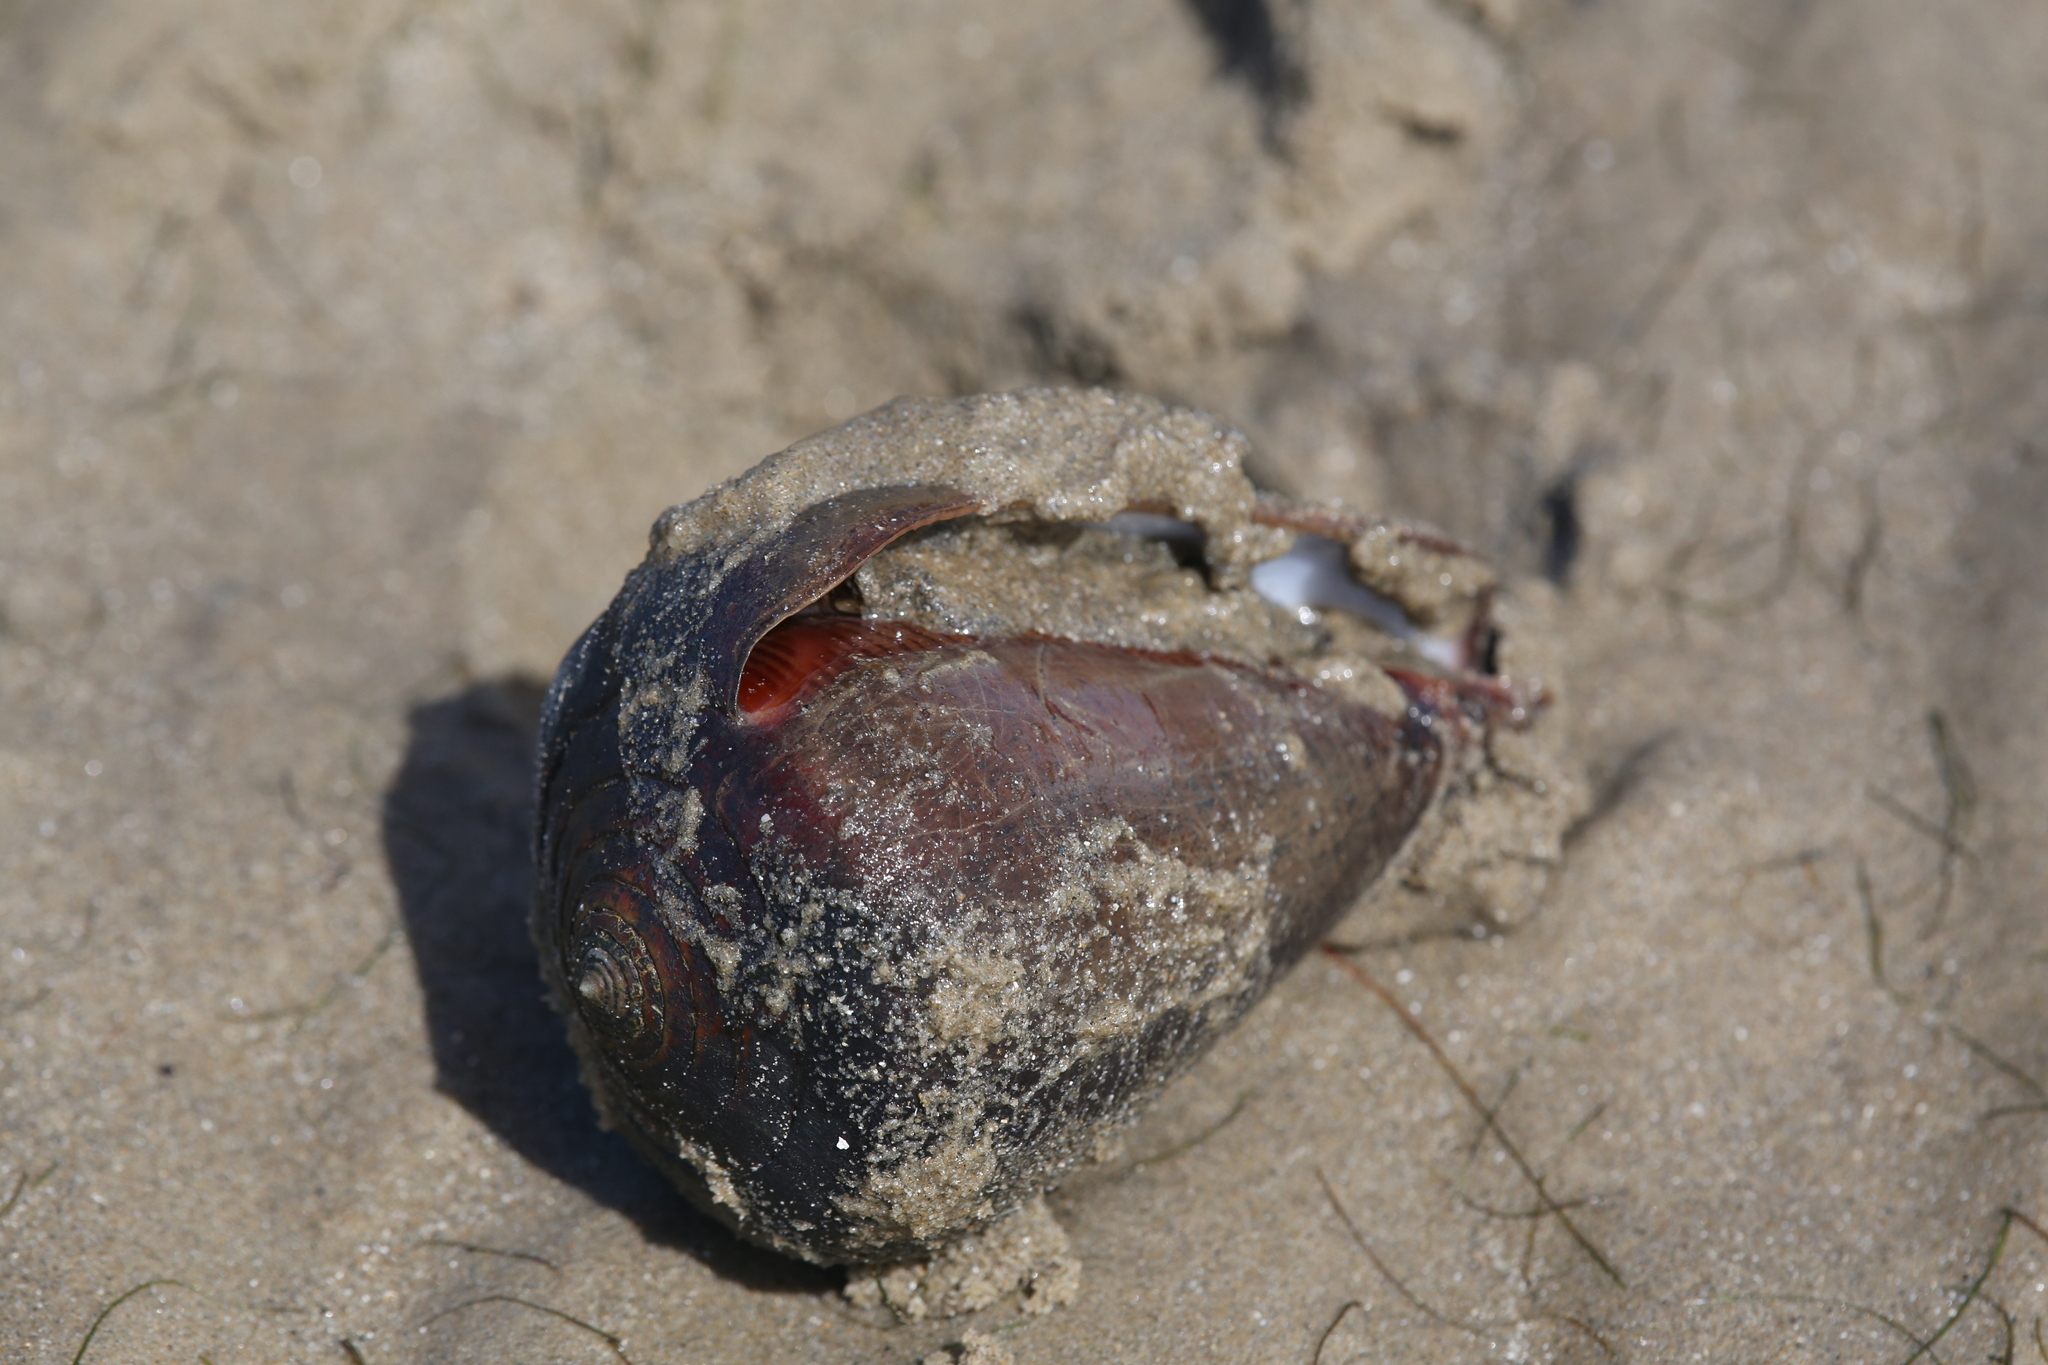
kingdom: Animalia
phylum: Mollusca
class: Gastropoda
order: Neogastropoda
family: Conidae
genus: Conus
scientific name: Conus figulinus
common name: Fig cone
